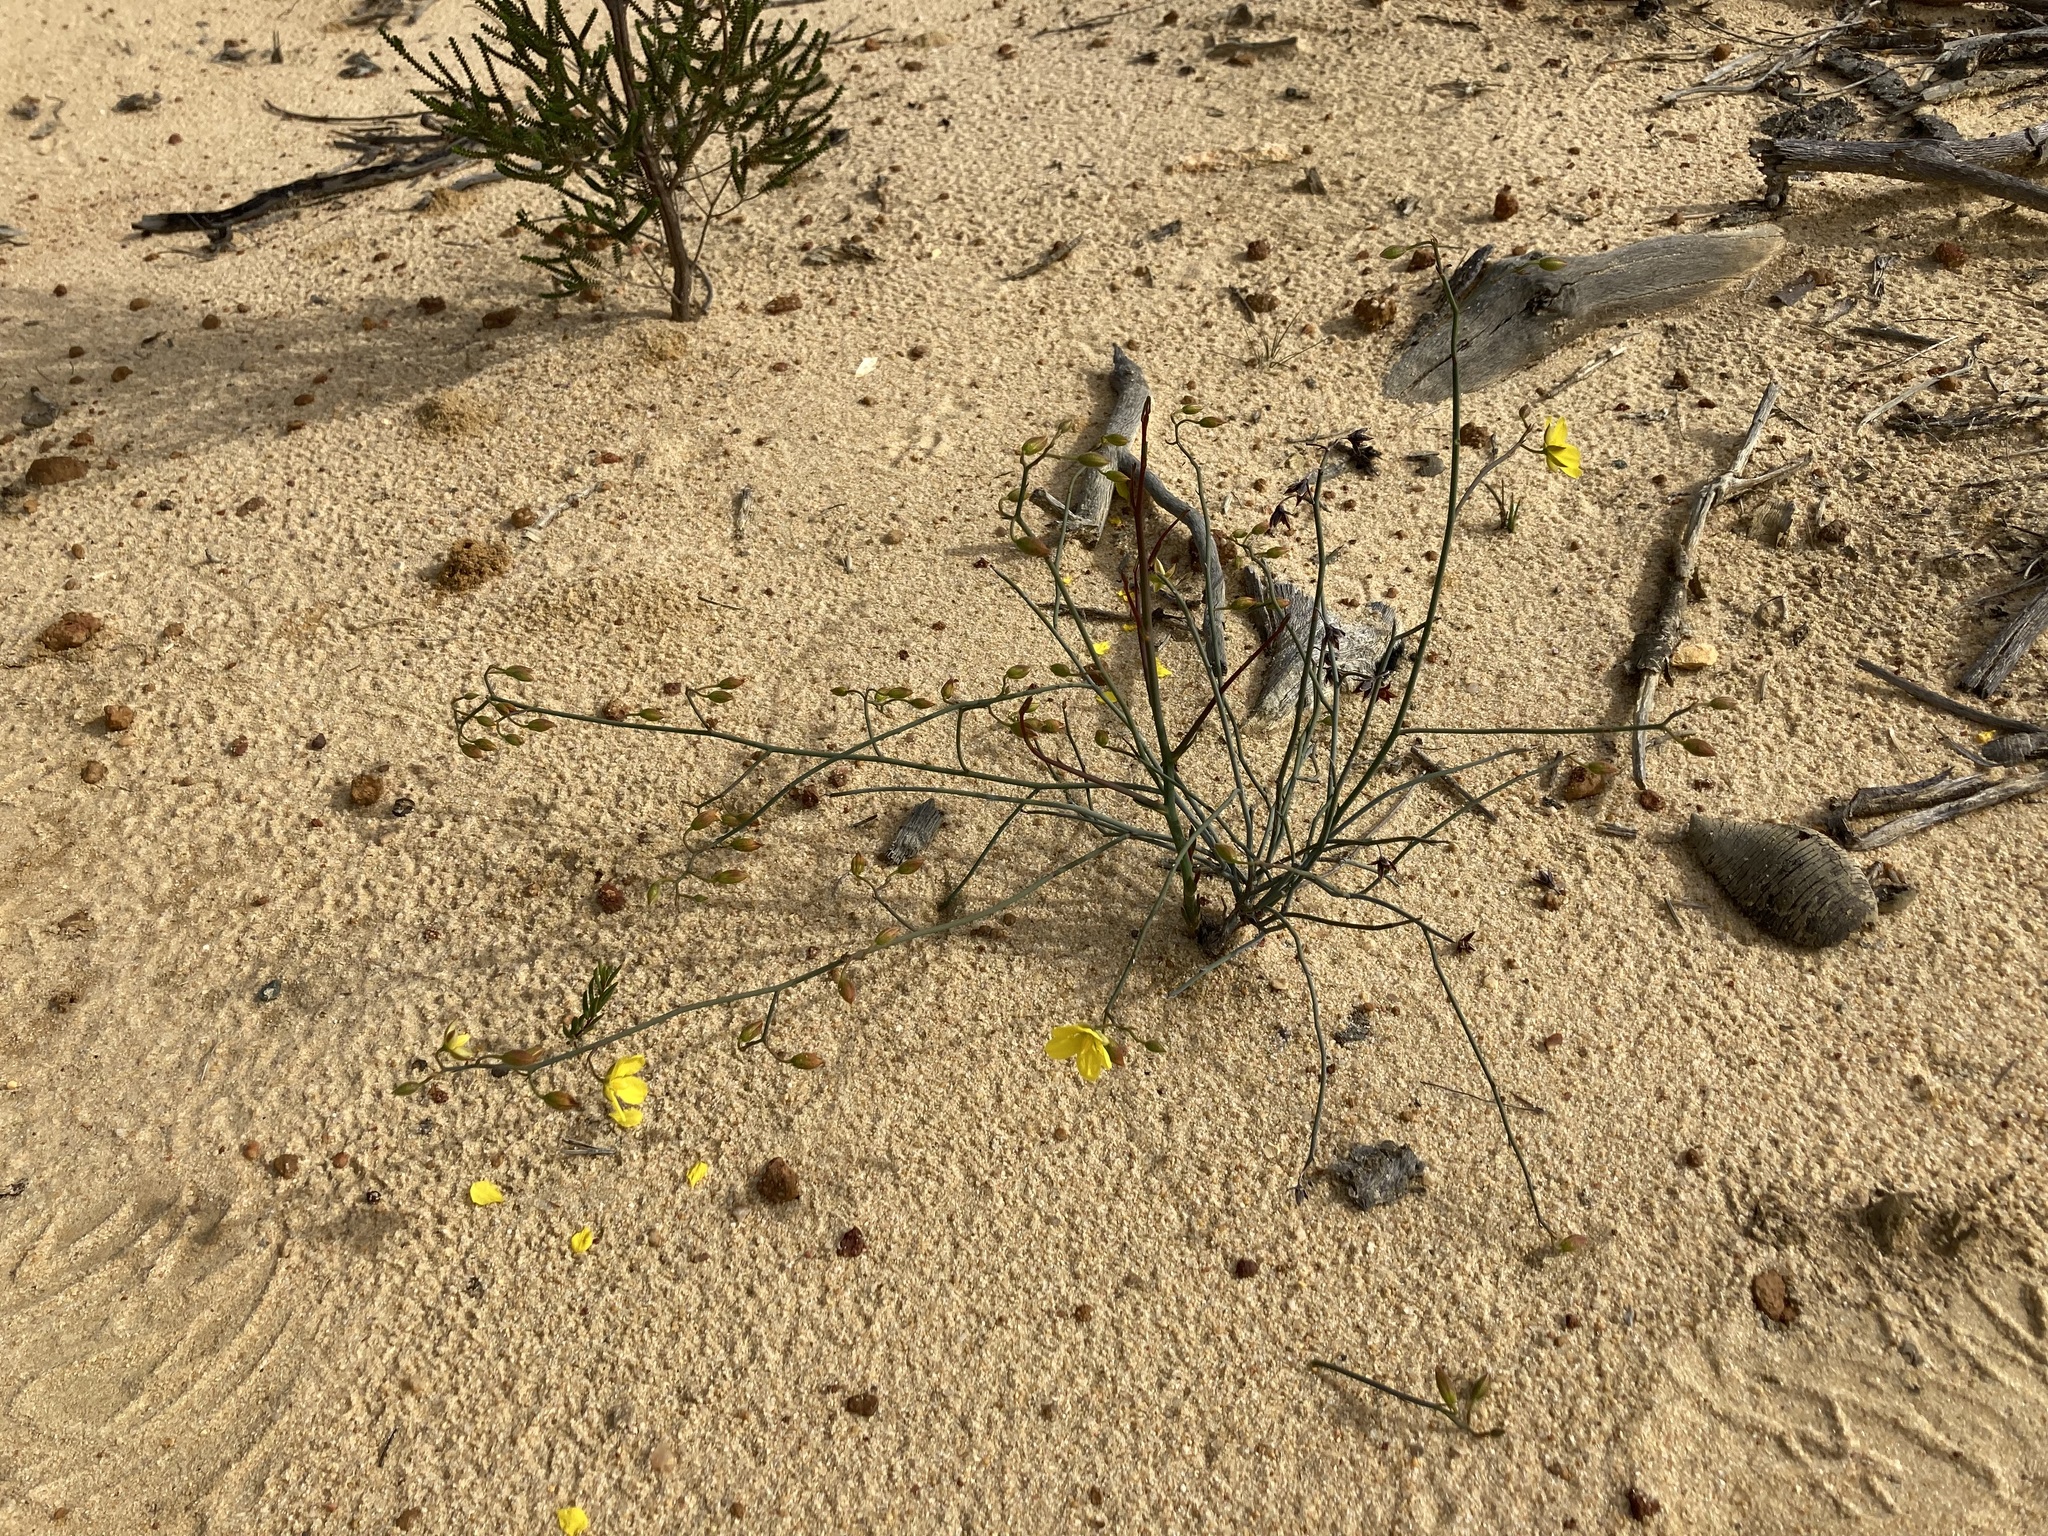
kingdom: Plantae
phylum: Tracheophyta
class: Magnoliopsida
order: Dilleniales
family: Dilleniaceae
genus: Hibbertia
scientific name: Hibbertia conspicua
